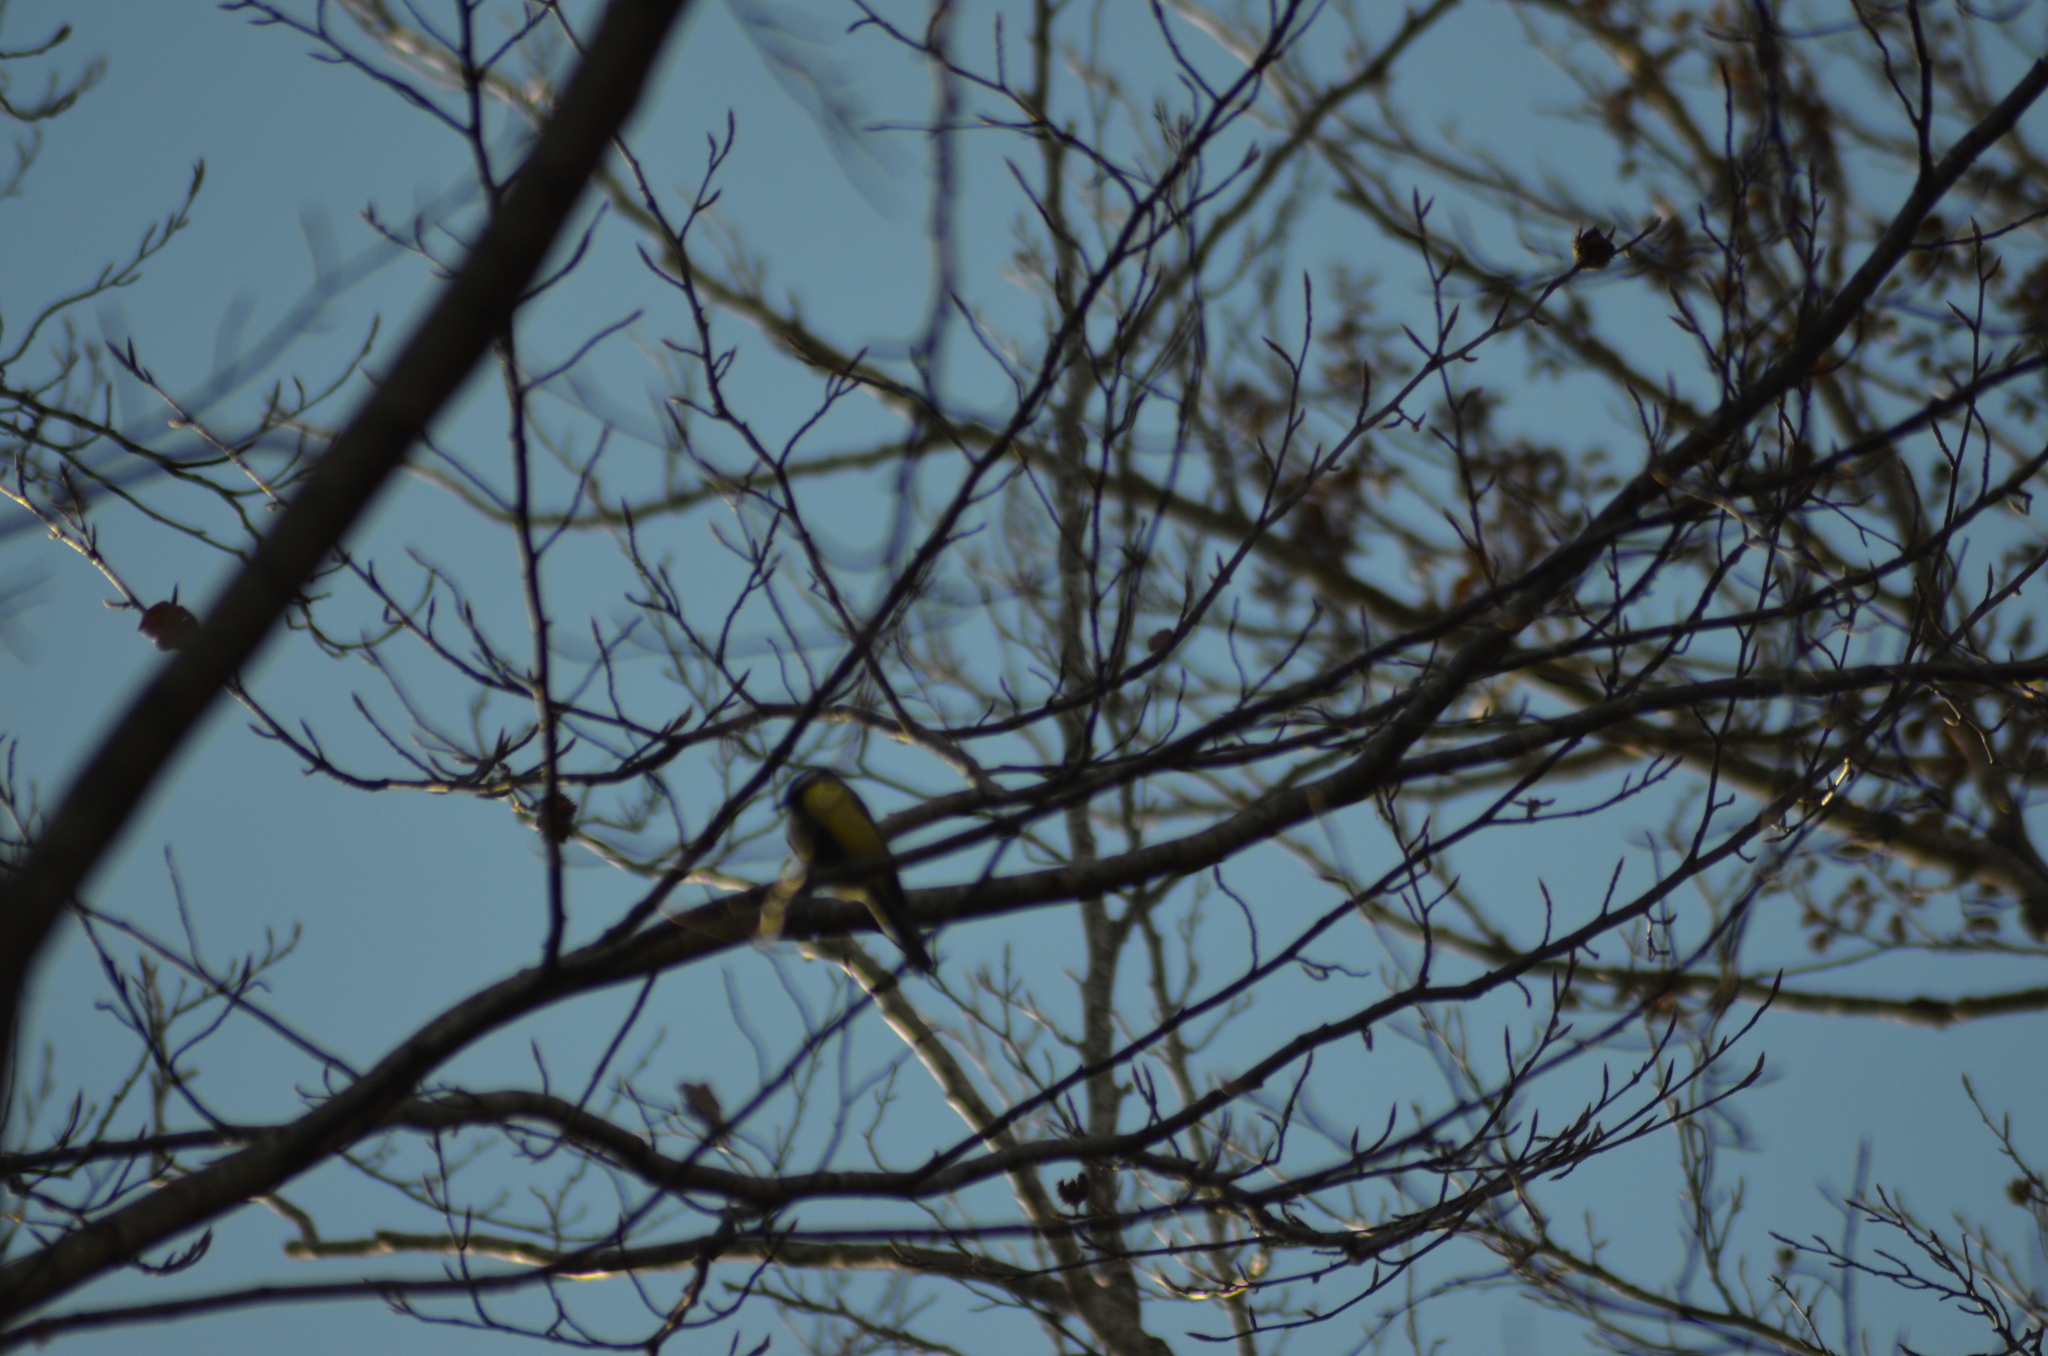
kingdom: Animalia
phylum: Chordata
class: Aves
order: Passeriformes
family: Paridae
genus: Parus
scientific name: Parus major
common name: Great tit
